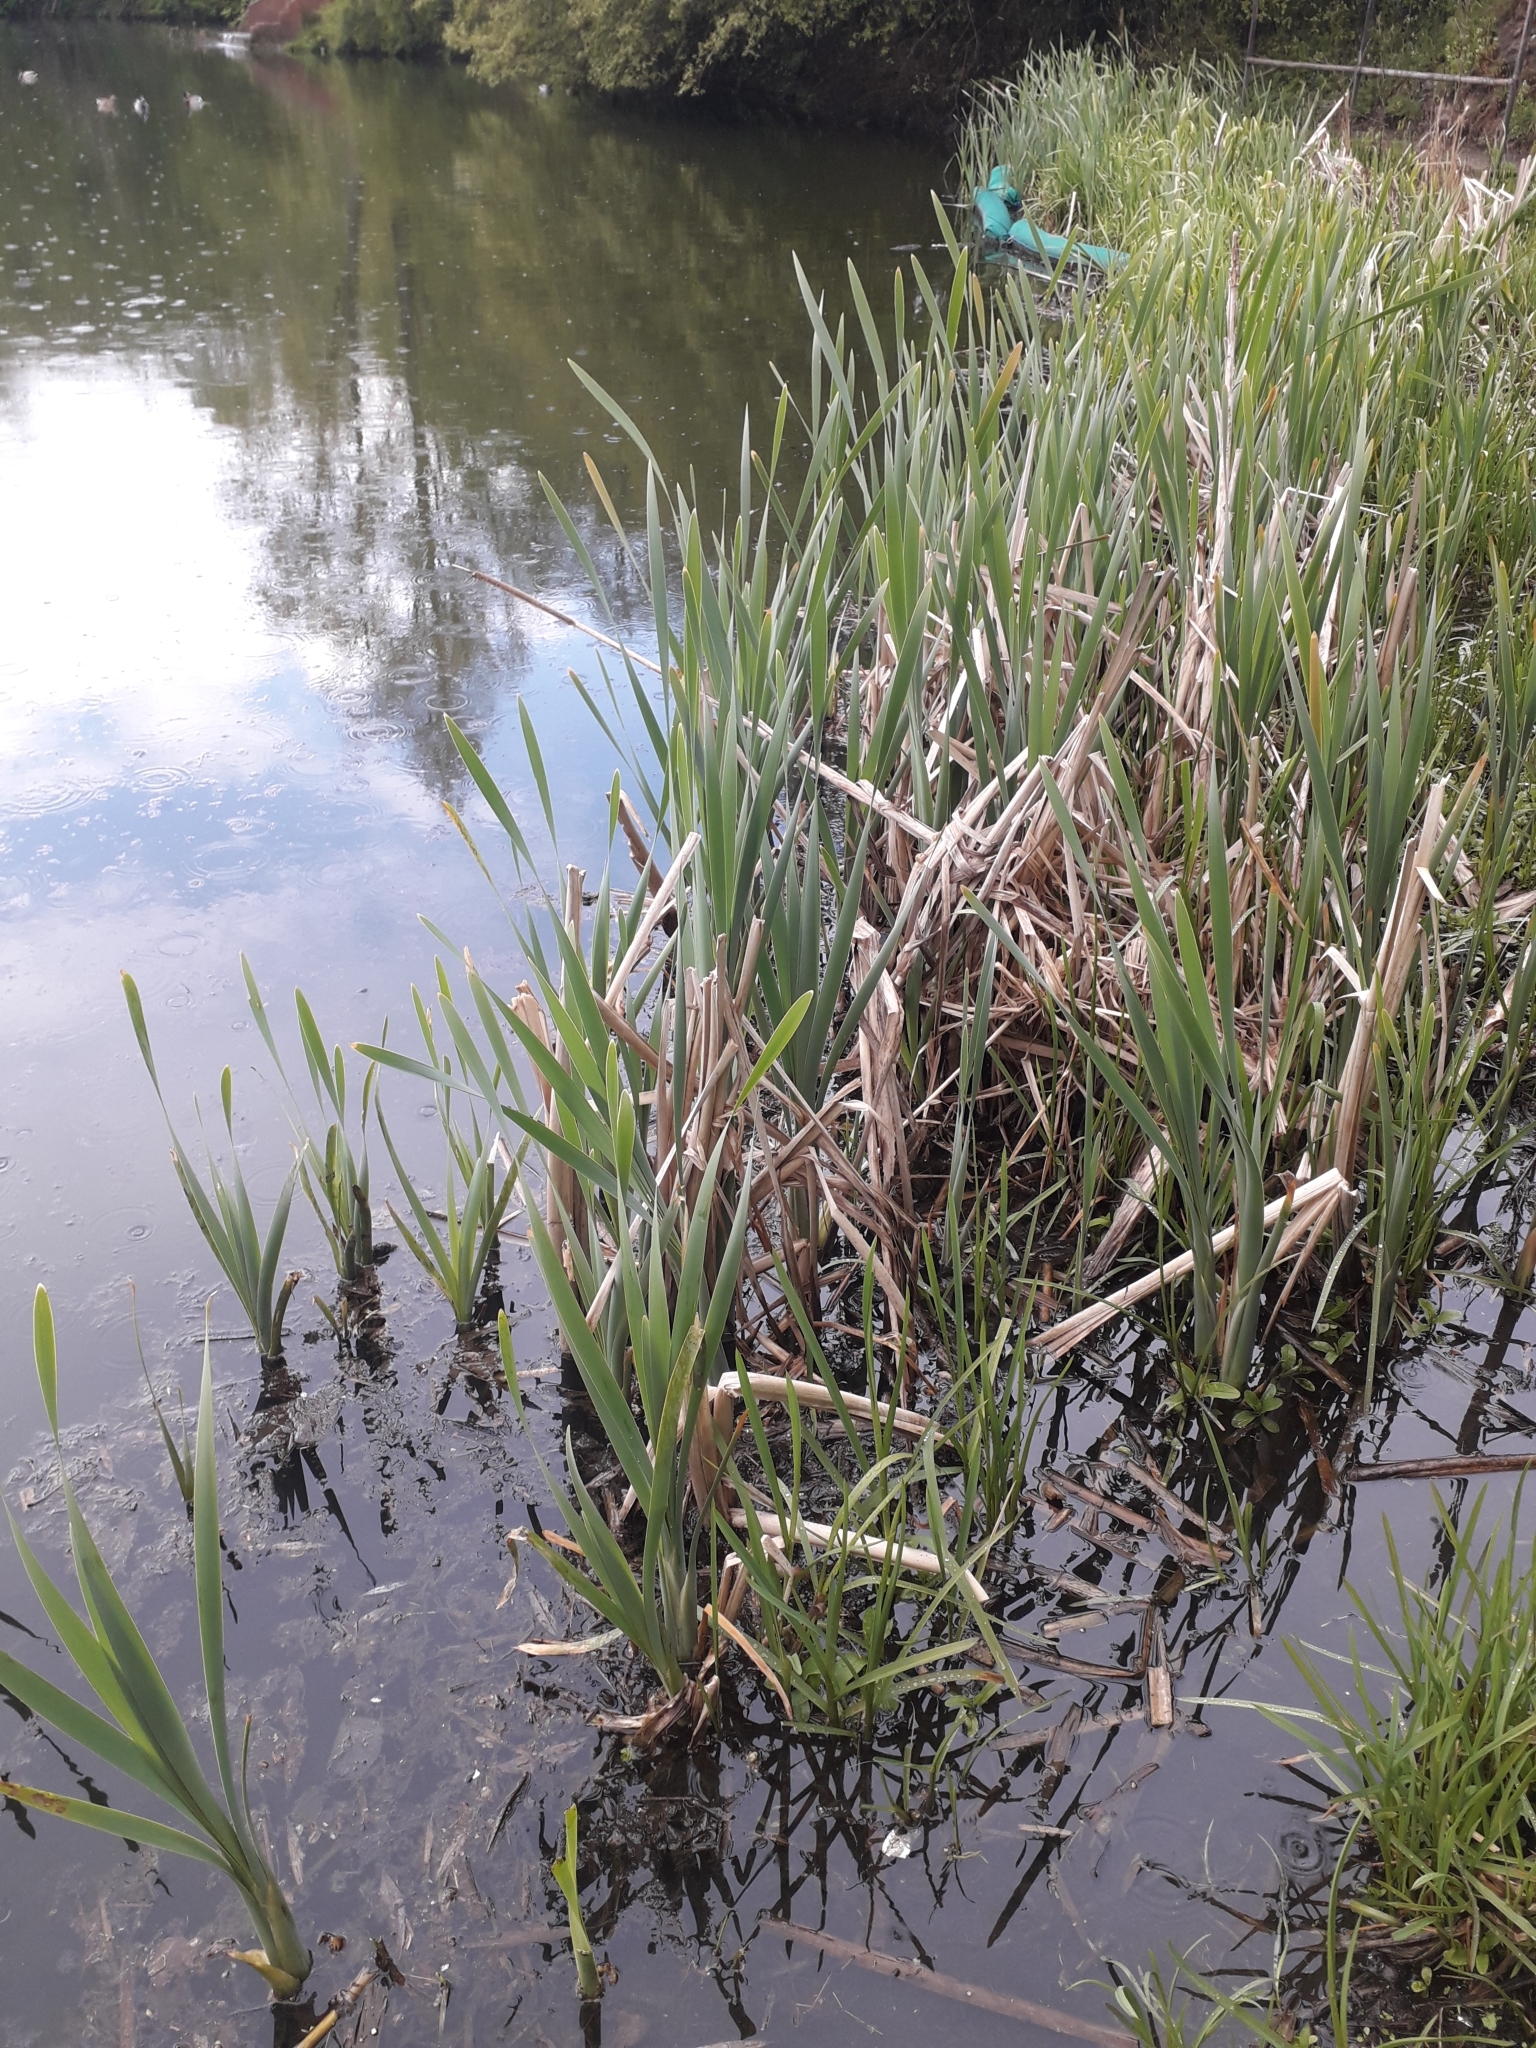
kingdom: Plantae
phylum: Tracheophyta
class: Liliopsida
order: Poales
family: Typhaceae
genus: Typha
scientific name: Typha latifolia
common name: Broadleaf cattail
